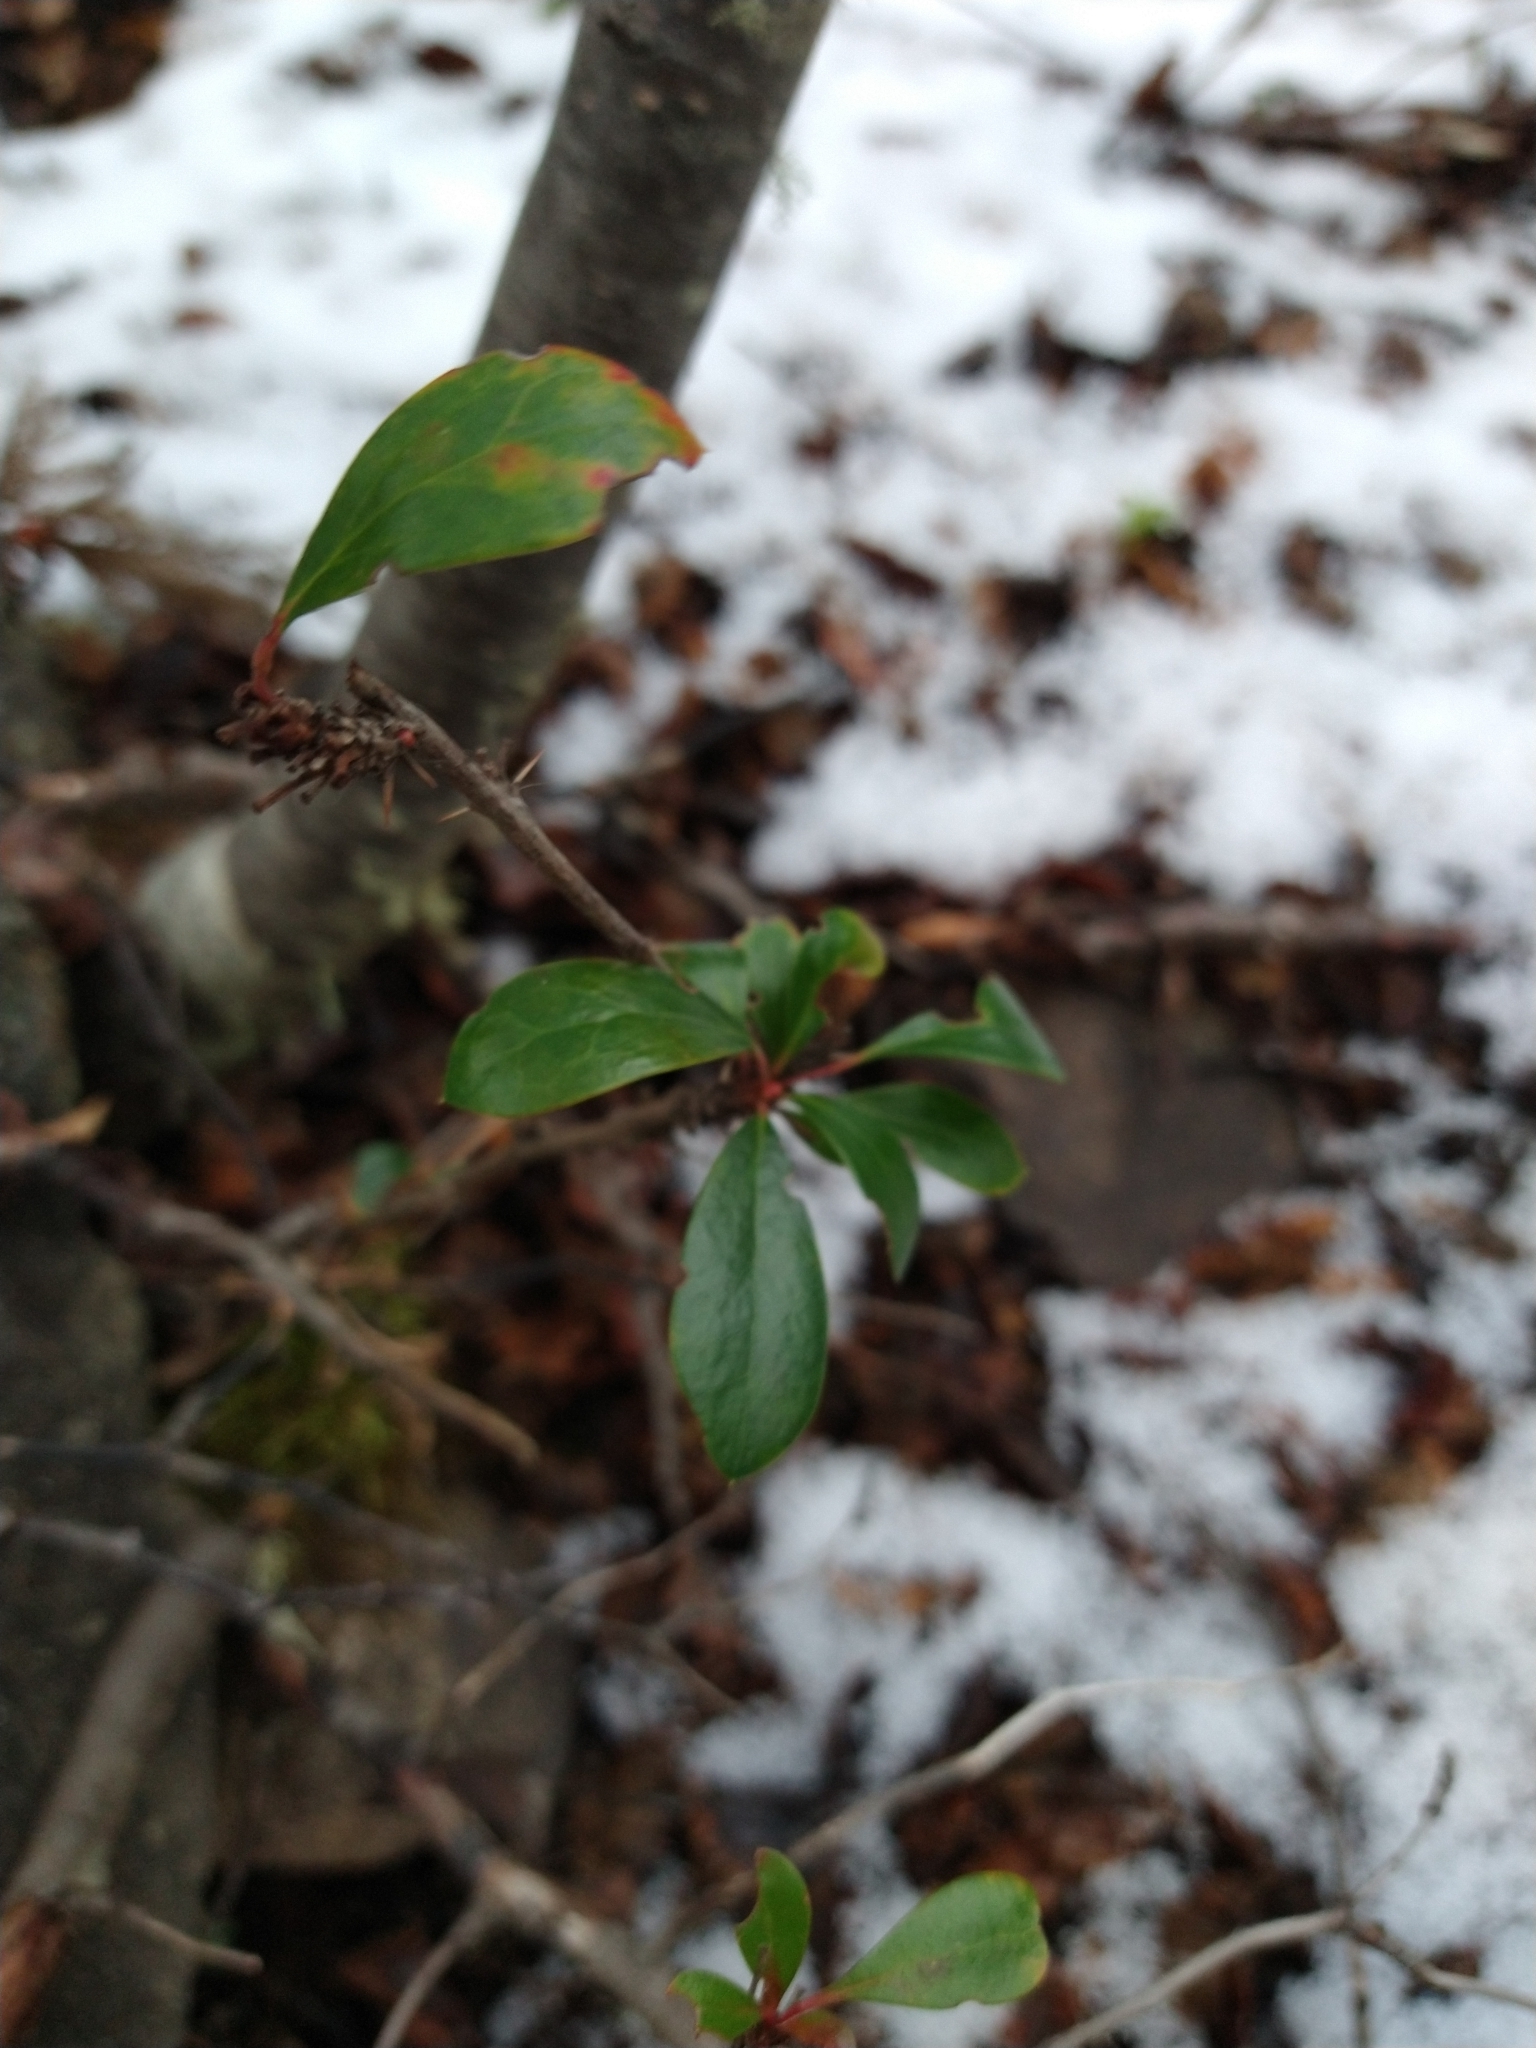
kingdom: Plantae
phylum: Tracheophyta
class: Magnoliopsida
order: Ranunculales
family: Berberidaceae
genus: Berberis
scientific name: Berberis microphylla
